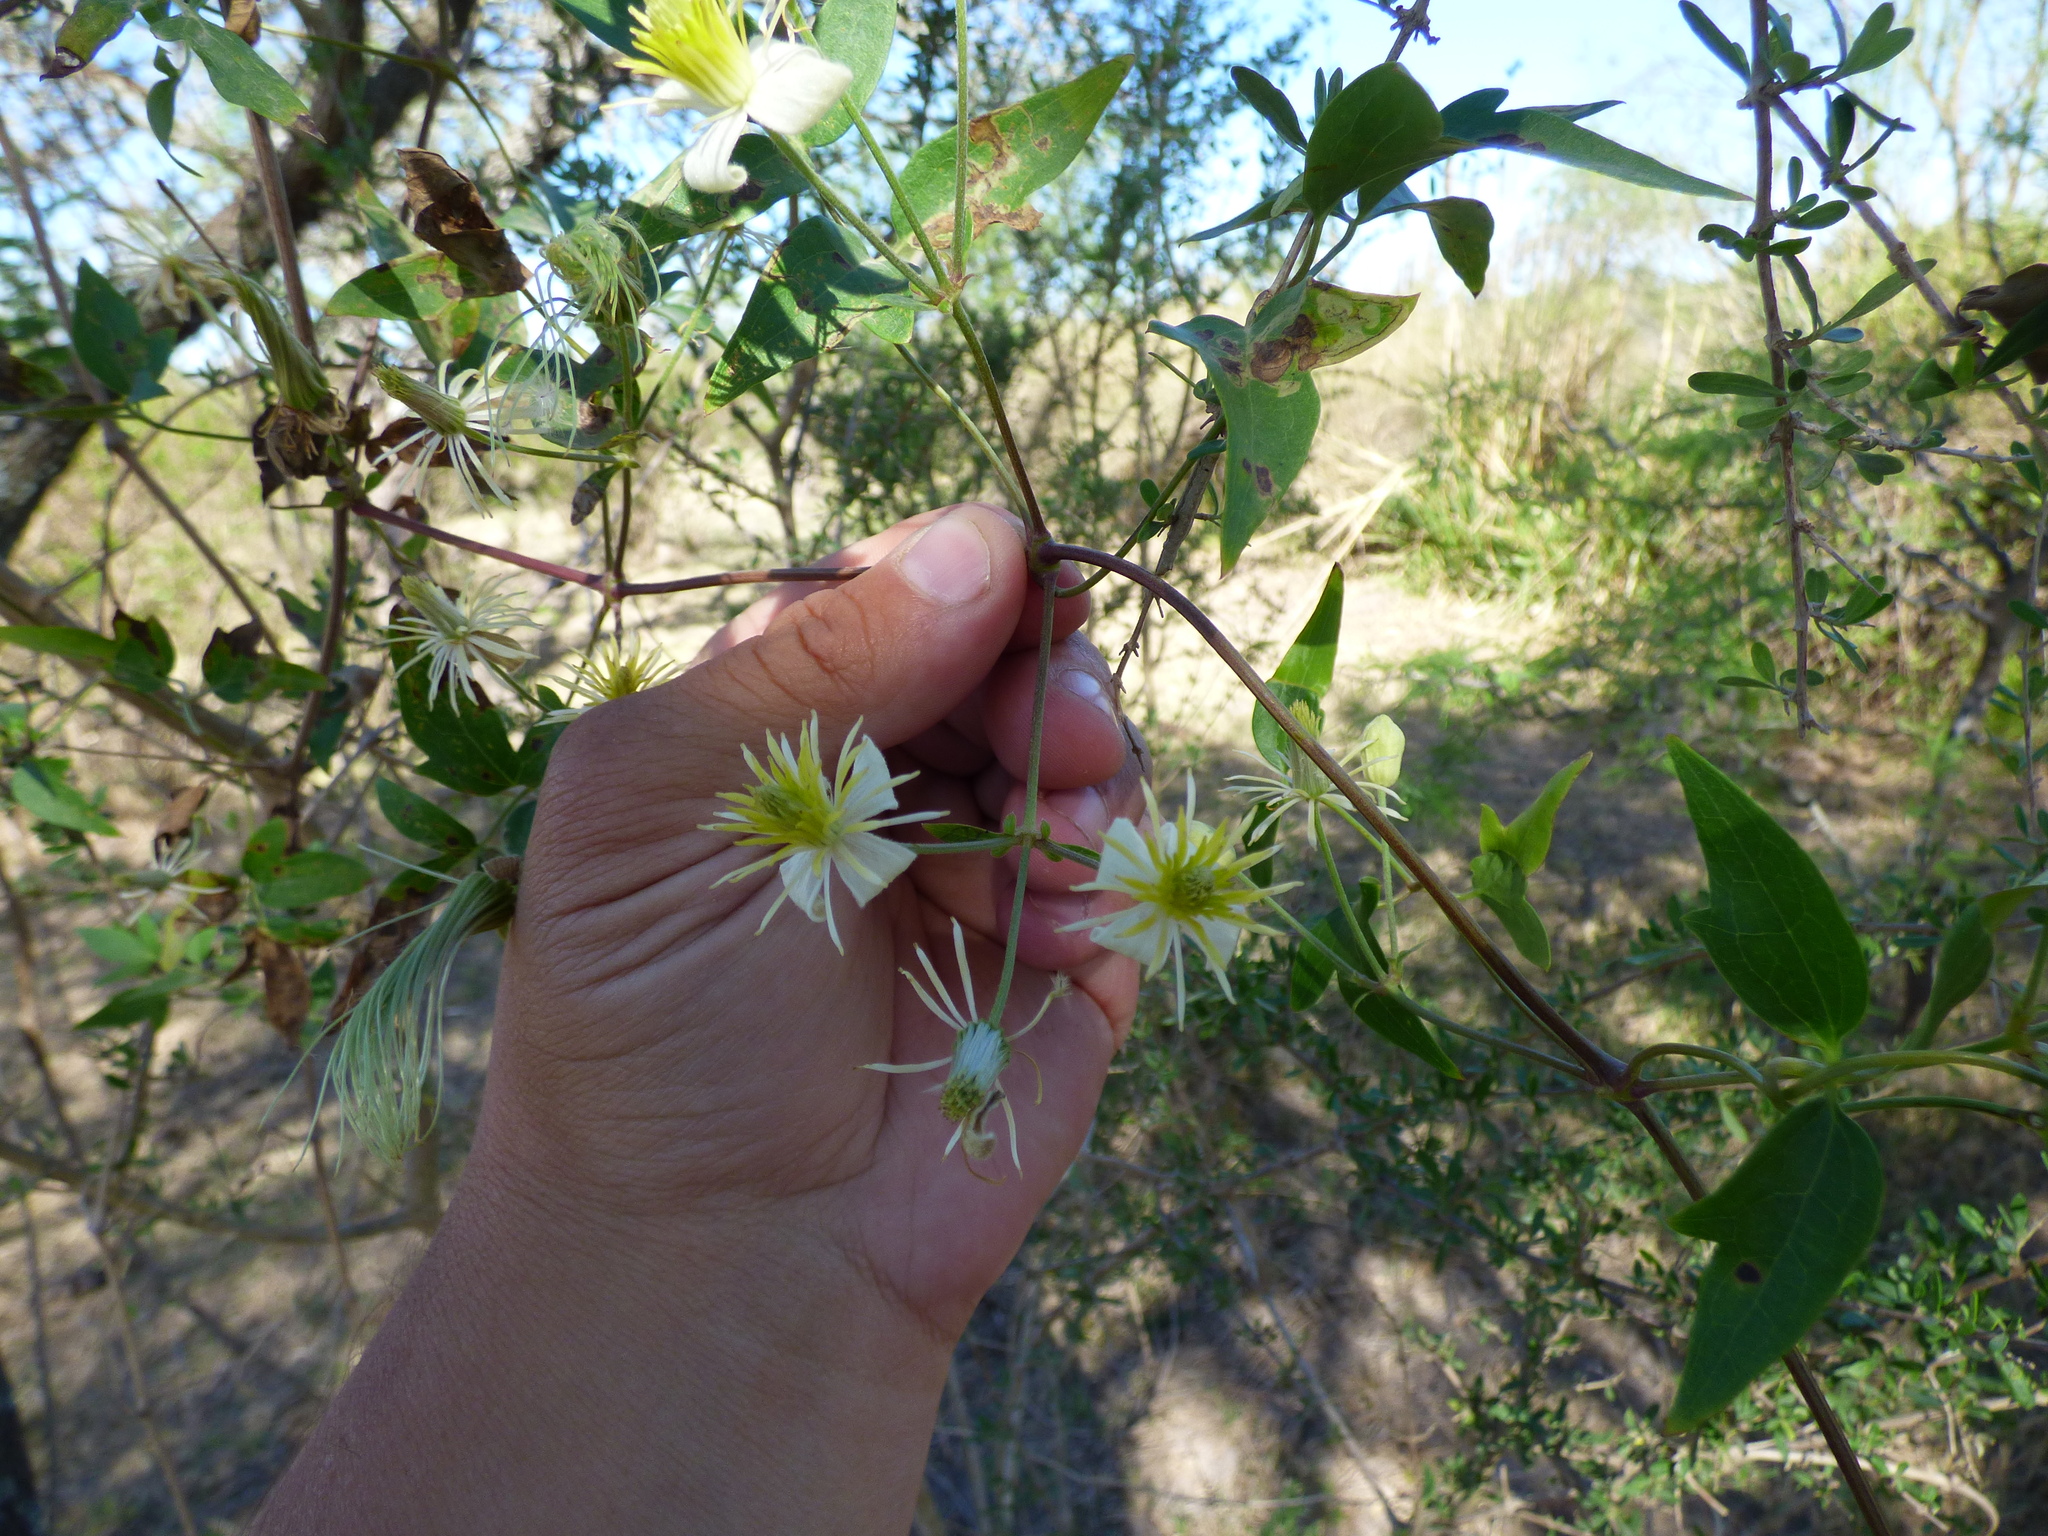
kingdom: Plantae
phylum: Tracheophyta
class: Magnoliopsida
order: Ranunculales
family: Ranunculaceae
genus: Clematis
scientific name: Clematis montevidensis
